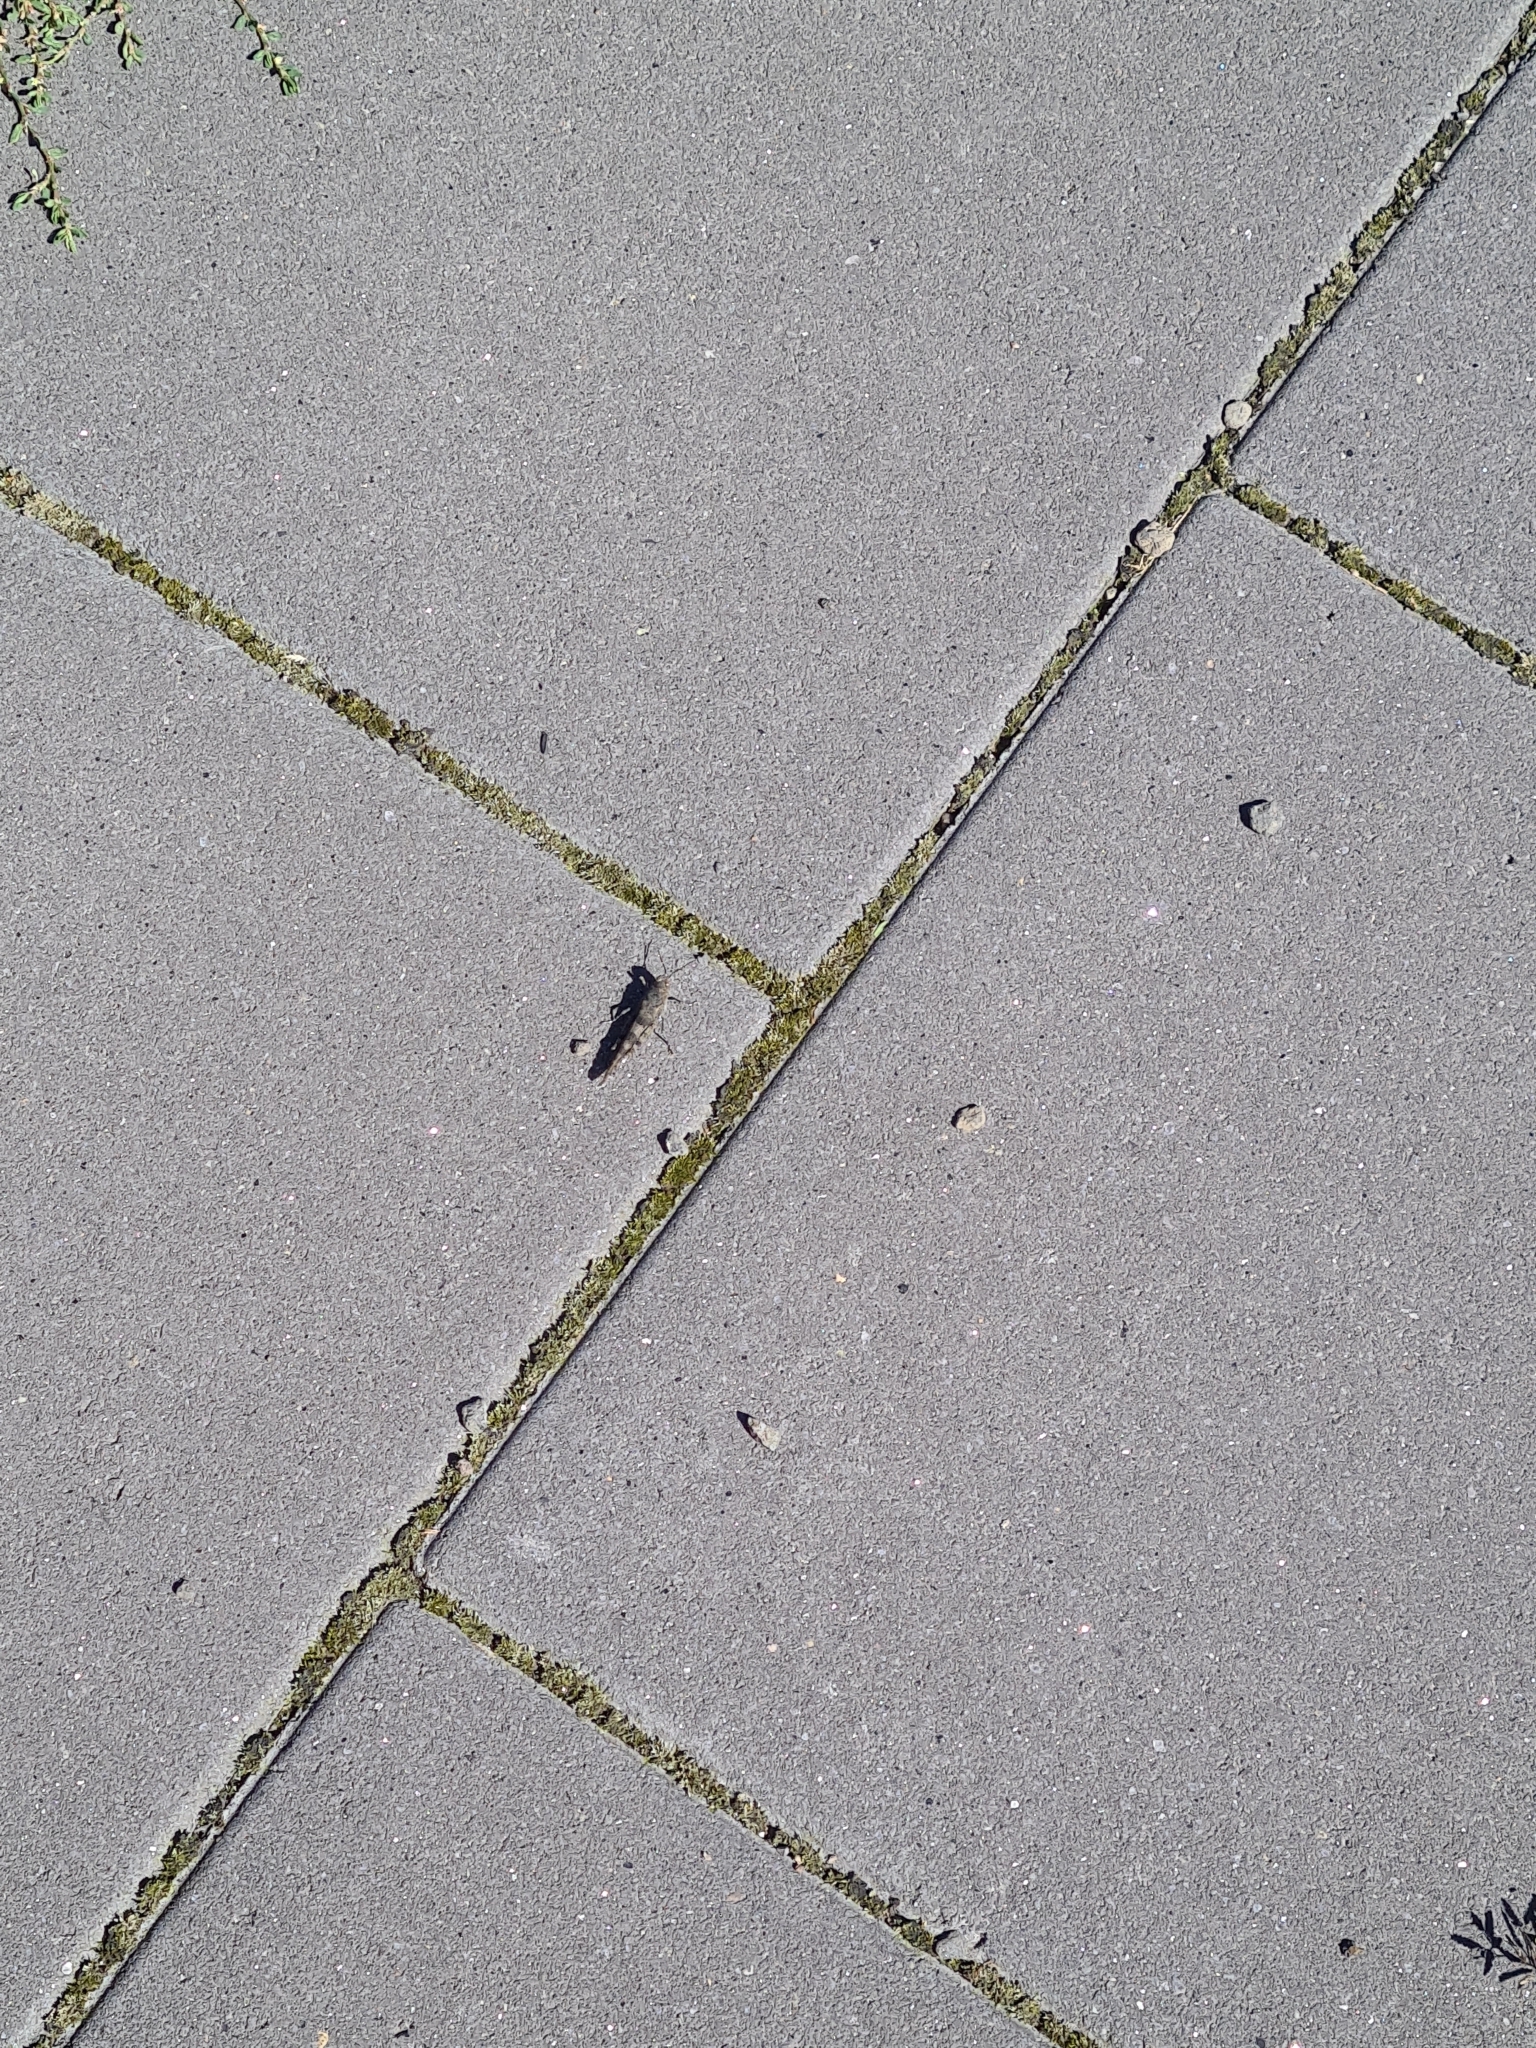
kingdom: Animalia
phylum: Arthropoda
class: Insecta
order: Orthoptera
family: Acrididae
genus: Sphingonotus
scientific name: Sphingonotus caerulans
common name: Blue-winged locust
